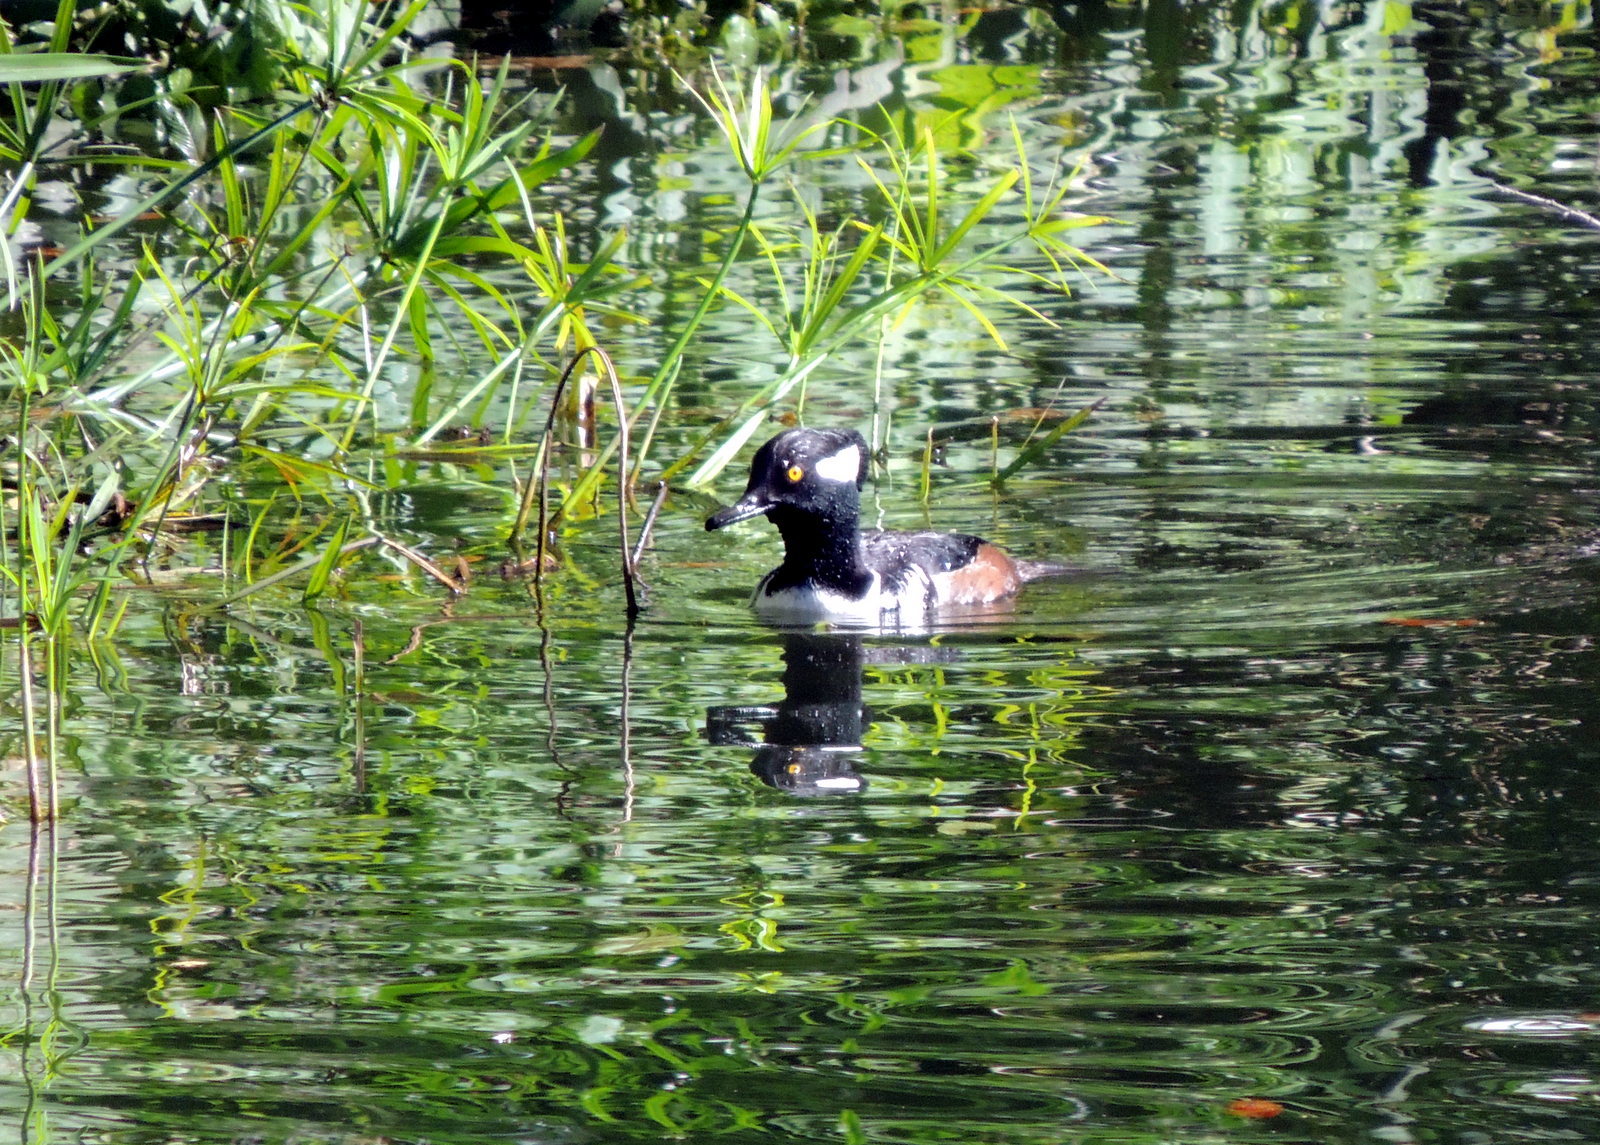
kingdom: Animalia
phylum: Chordata
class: Aves
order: Anseriformes
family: Anatidae
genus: Lophodytes
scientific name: Lophodytes cucullatus
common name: Hooded merganser
